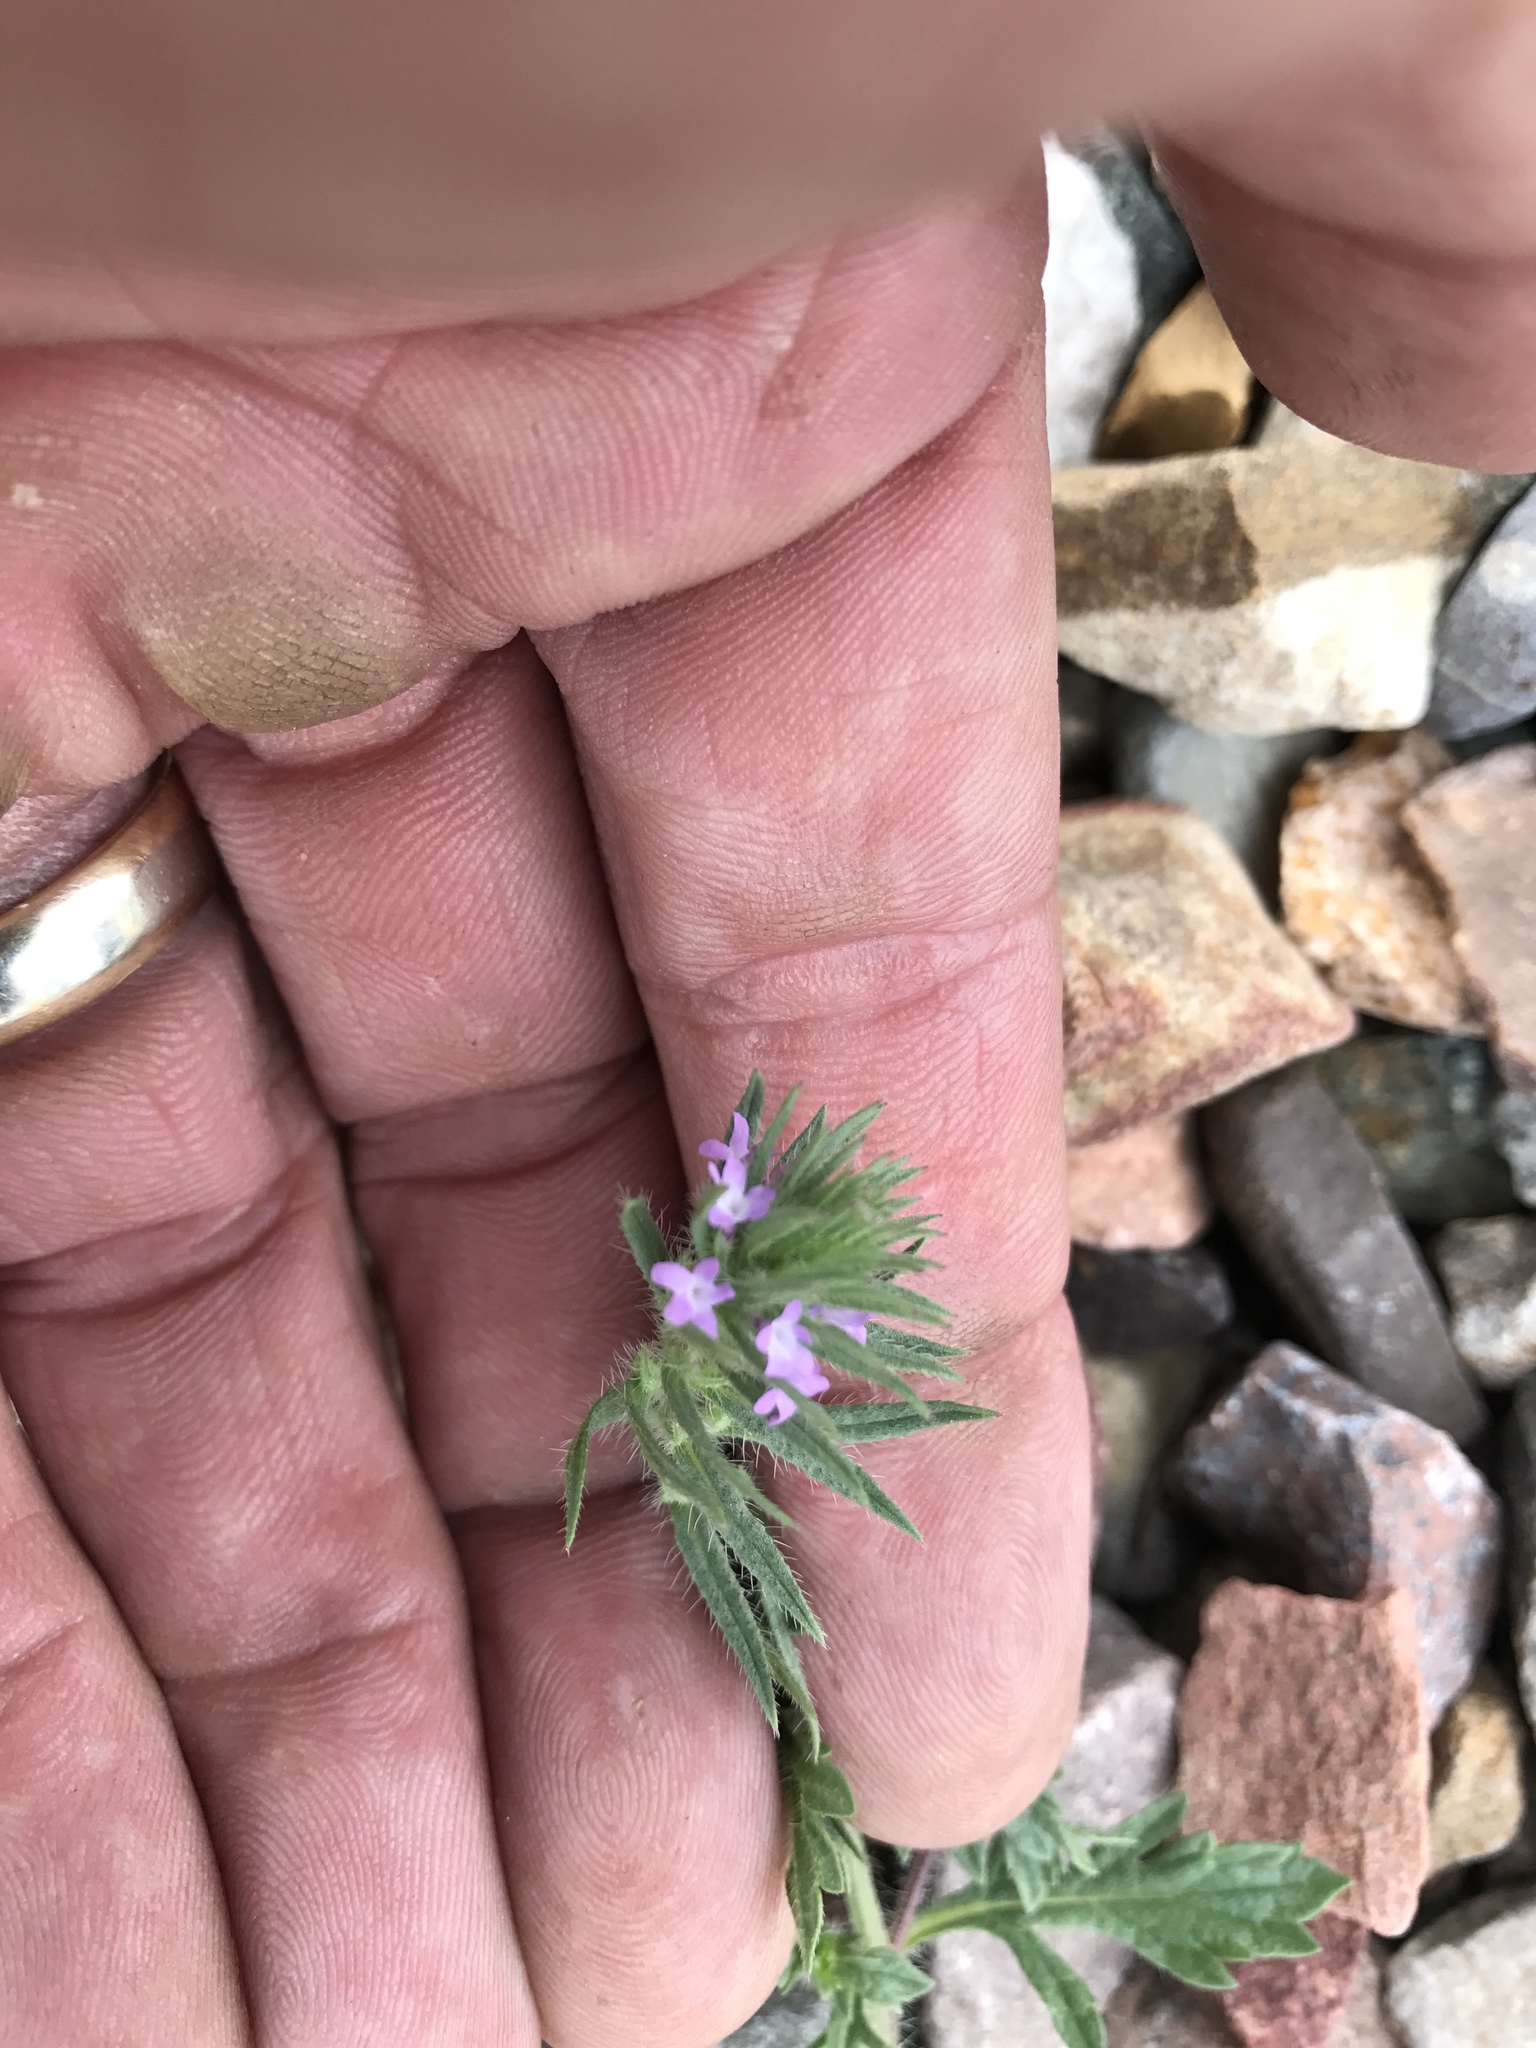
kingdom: Plantae
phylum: Tracheophyta
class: Magnoliopsida
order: Lamiales
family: Verbenaceae
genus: Verbena
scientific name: Verbena bracteata
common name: Bracted vervain
